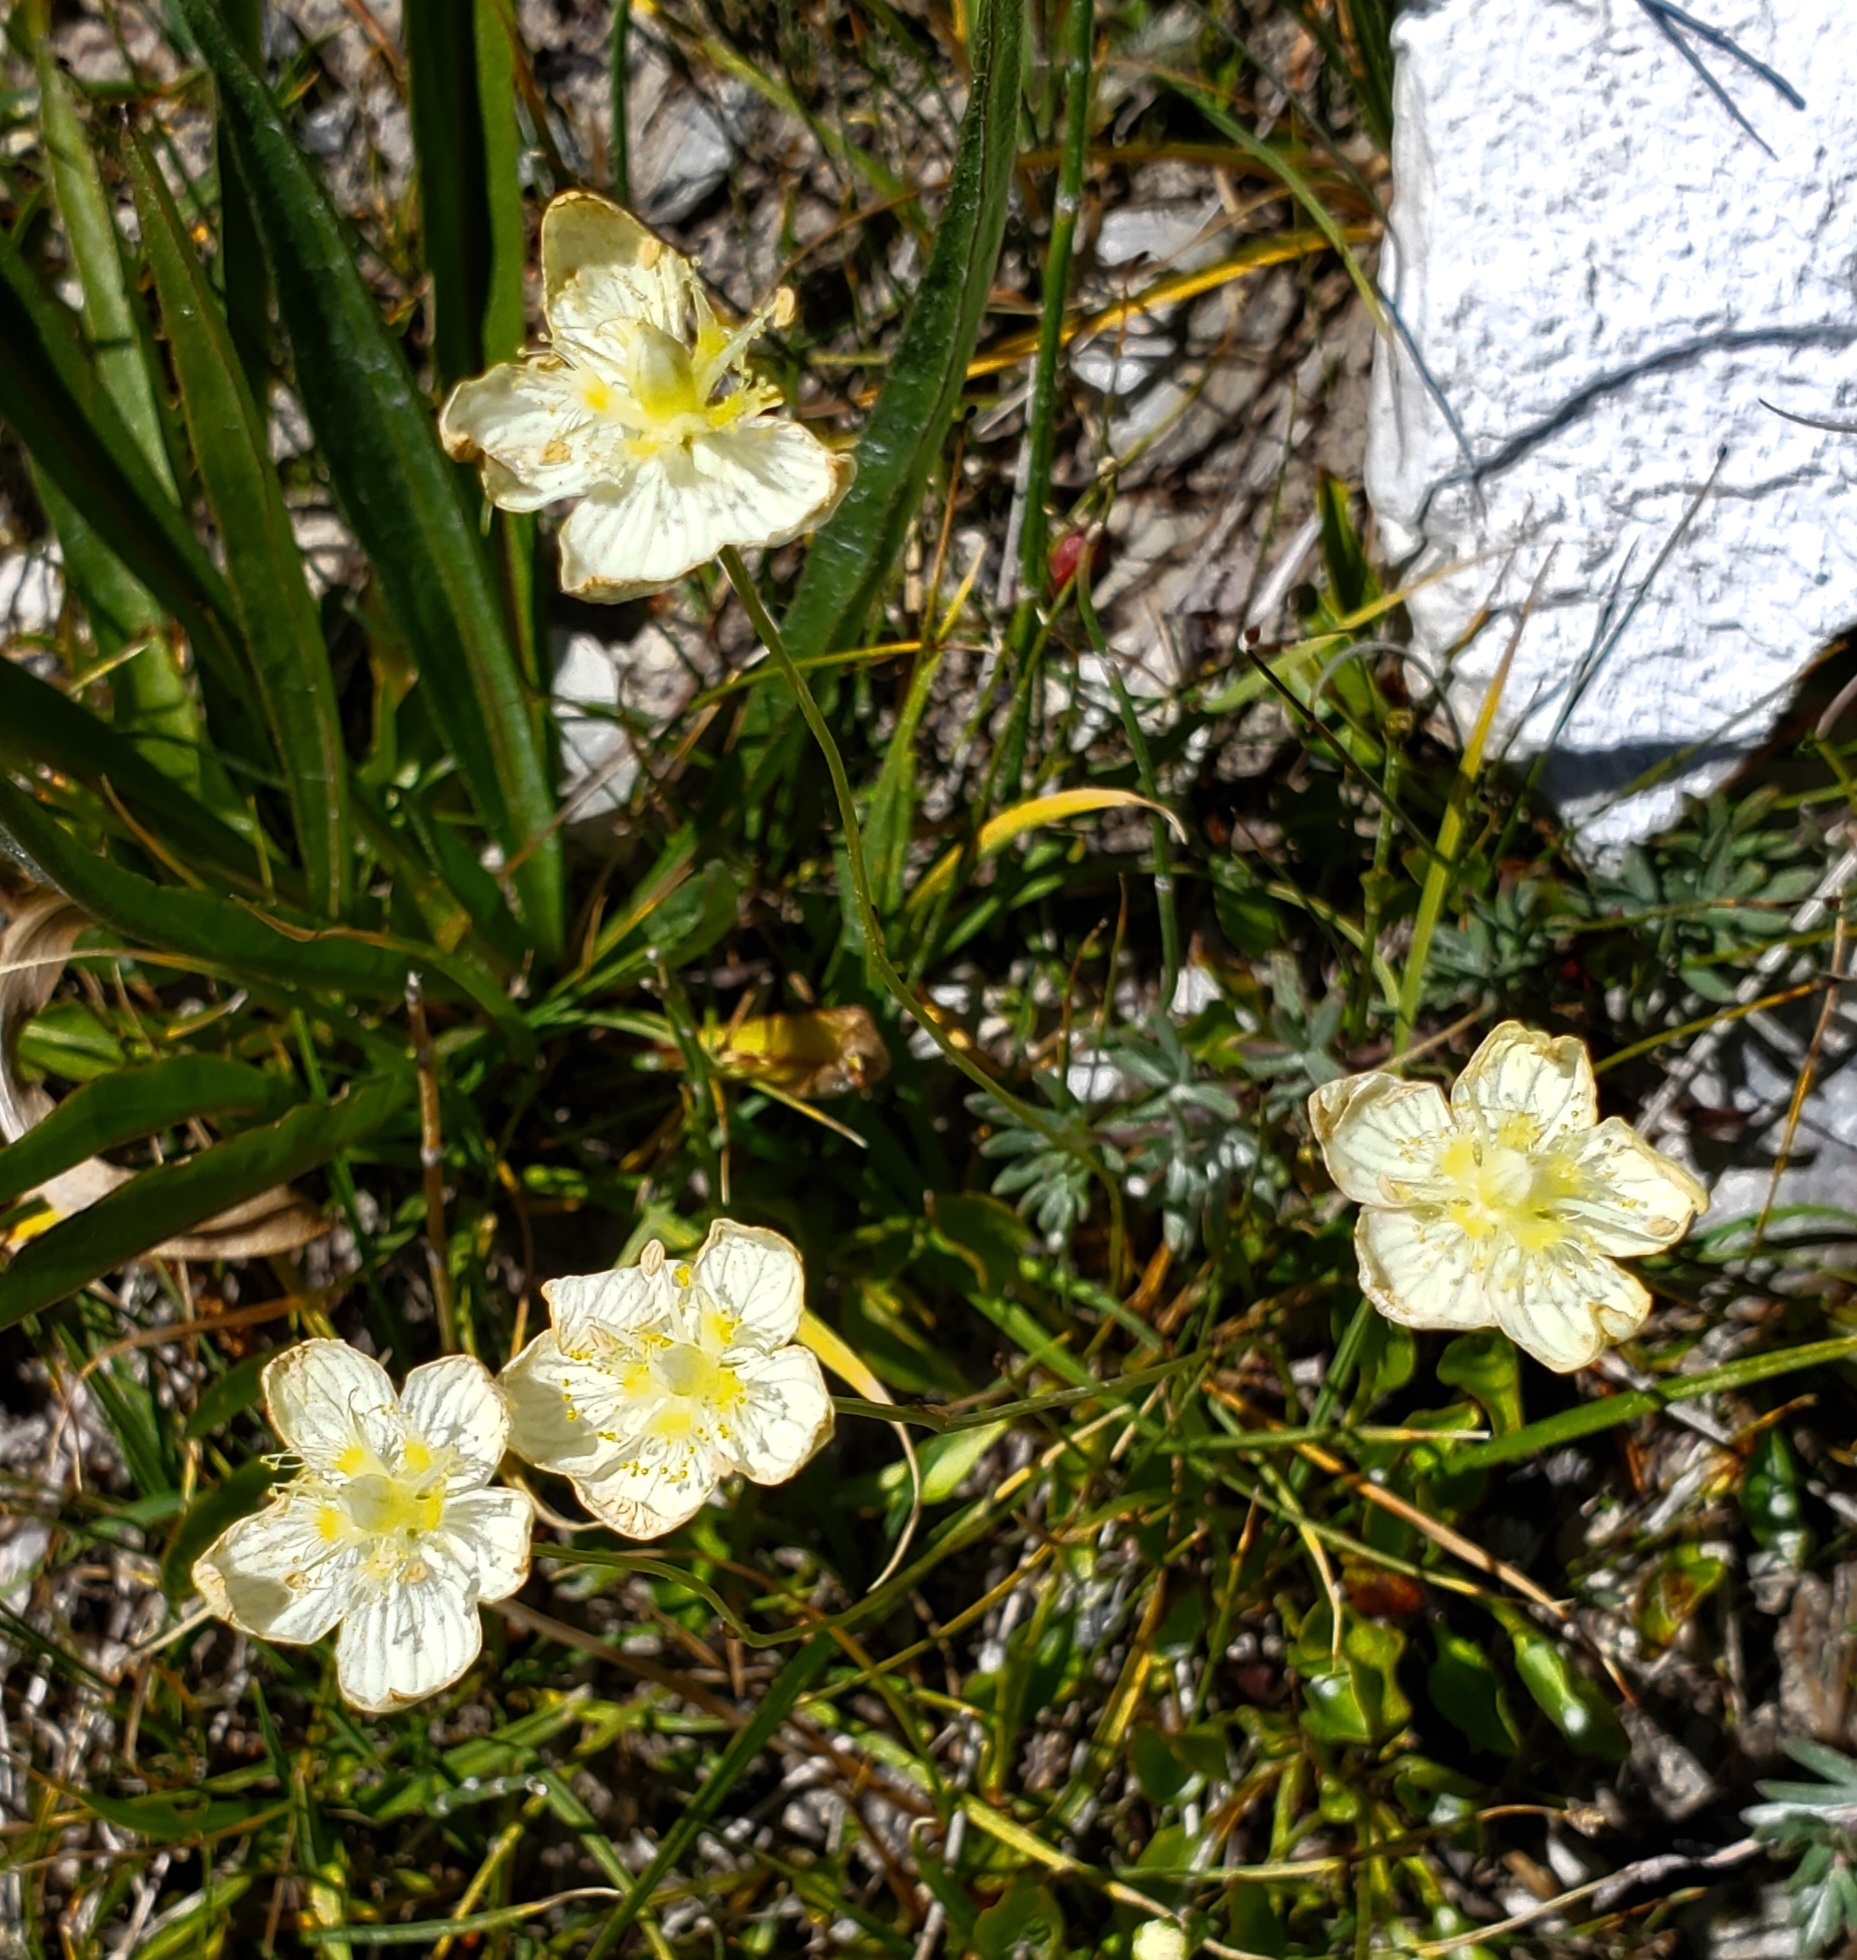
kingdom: Plantae
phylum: Tracheophyta
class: Magnoliopsida
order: Celastrales
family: Parnassiaceae
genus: Parnassia
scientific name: Parnassia palustris
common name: Grass-of-parnassus
